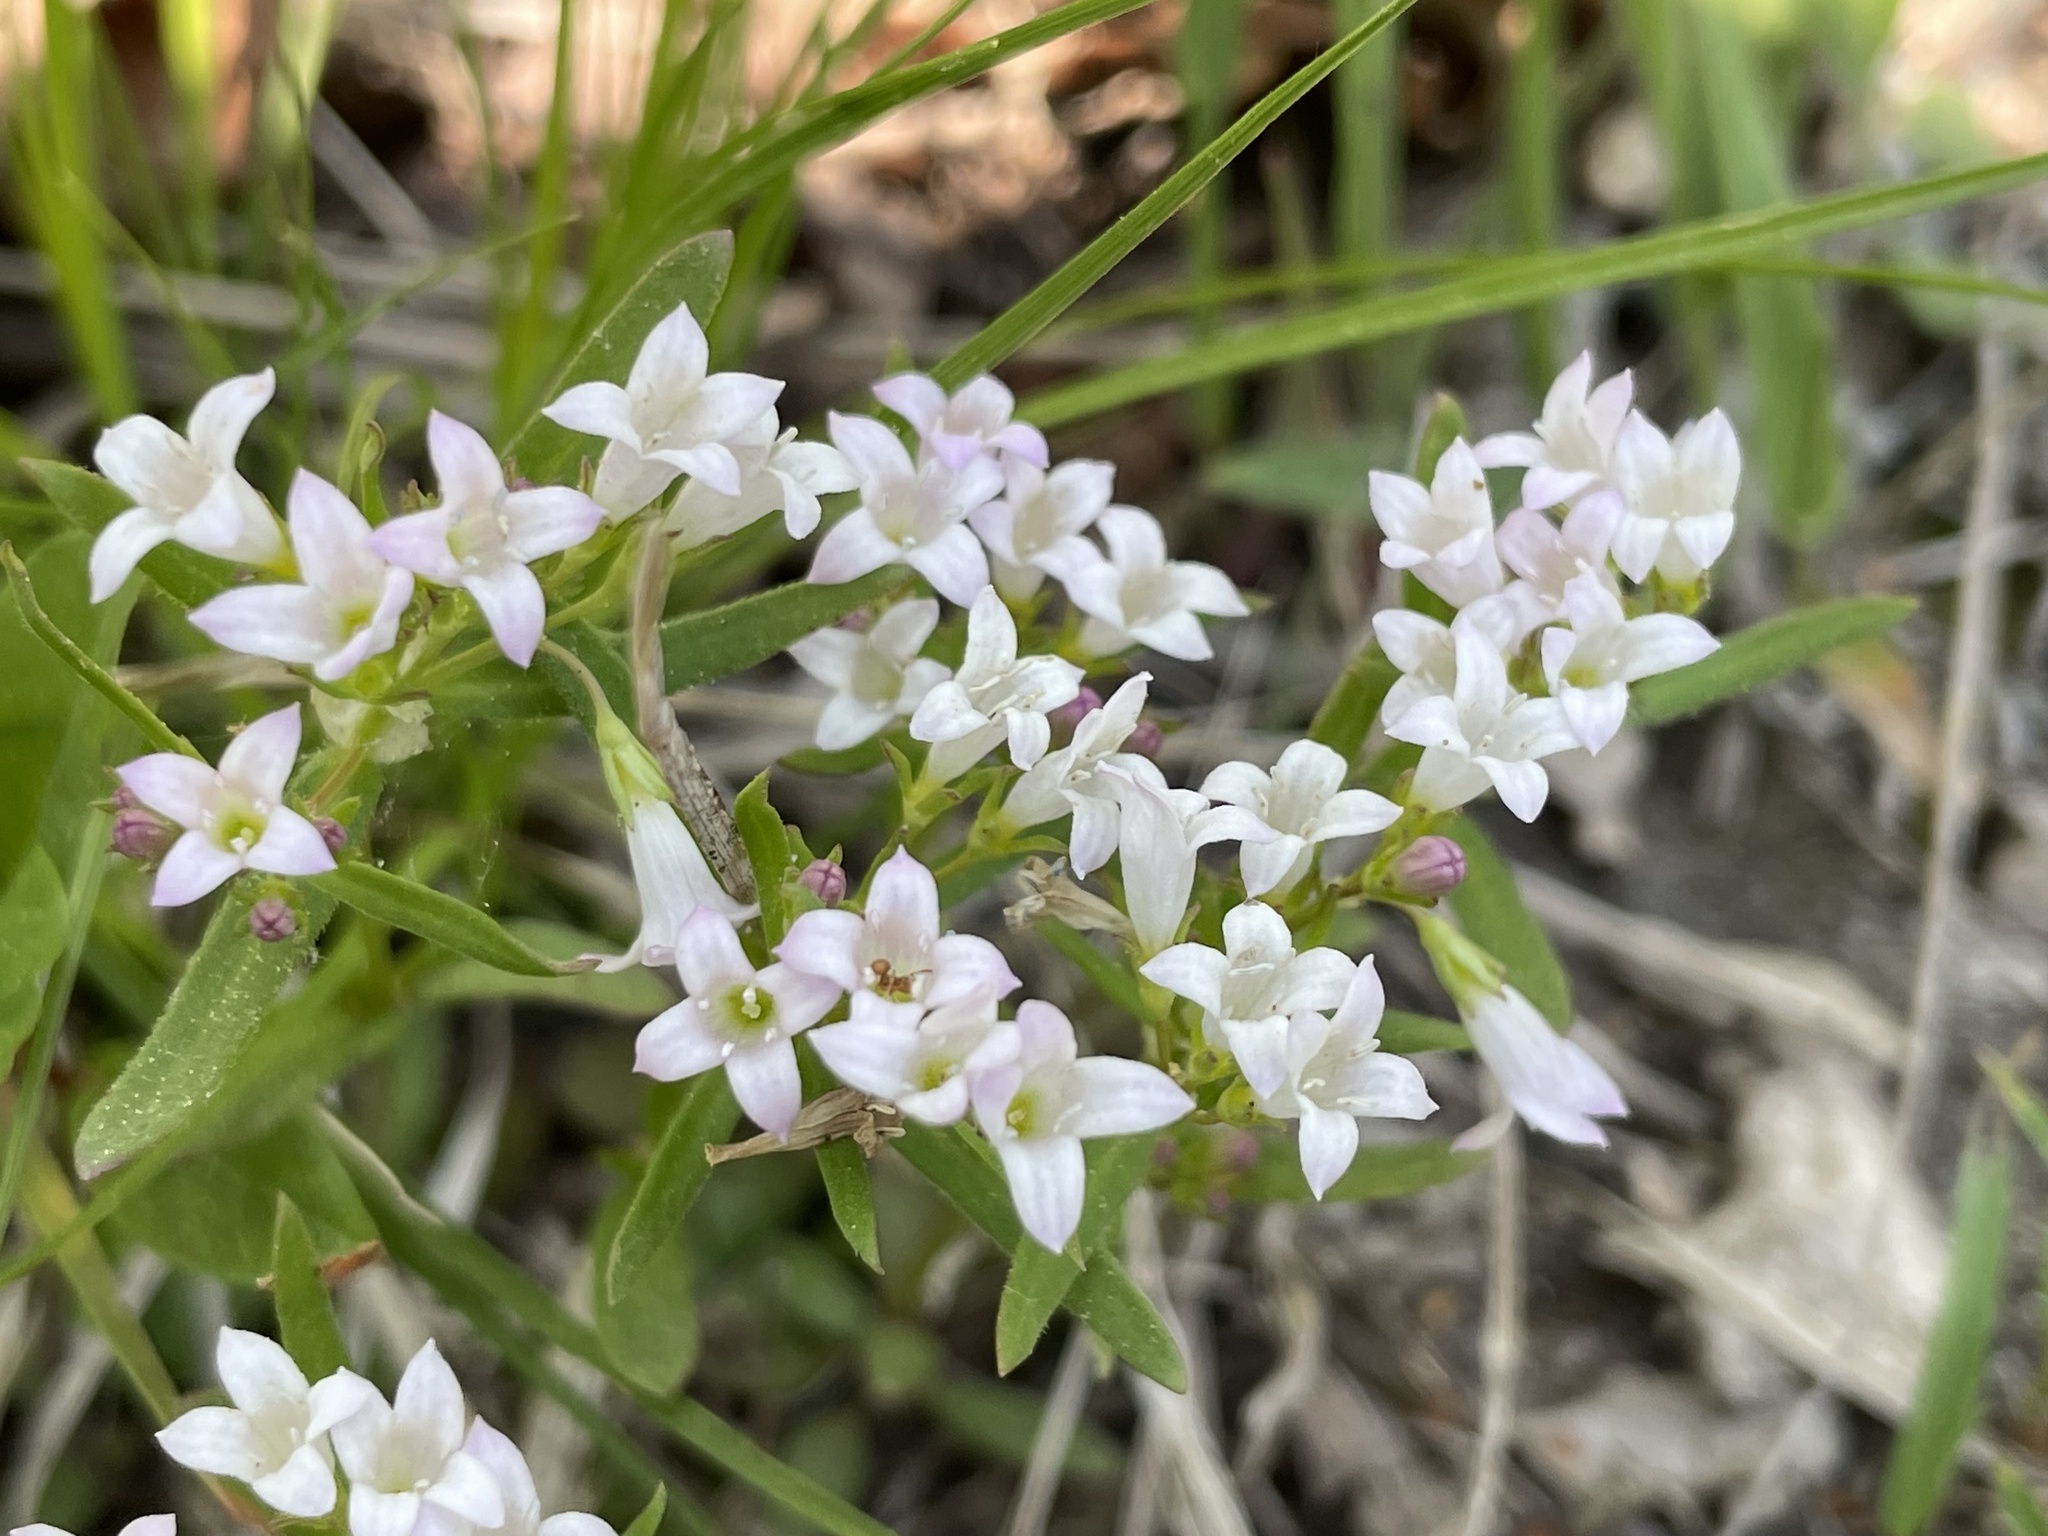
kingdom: Plantae
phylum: Tracheophyta
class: Magnoliopsida
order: Gentianales
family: Rubiaceae
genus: Houstonia
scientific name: Houstonia canadensis
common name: Fringed houstonia
